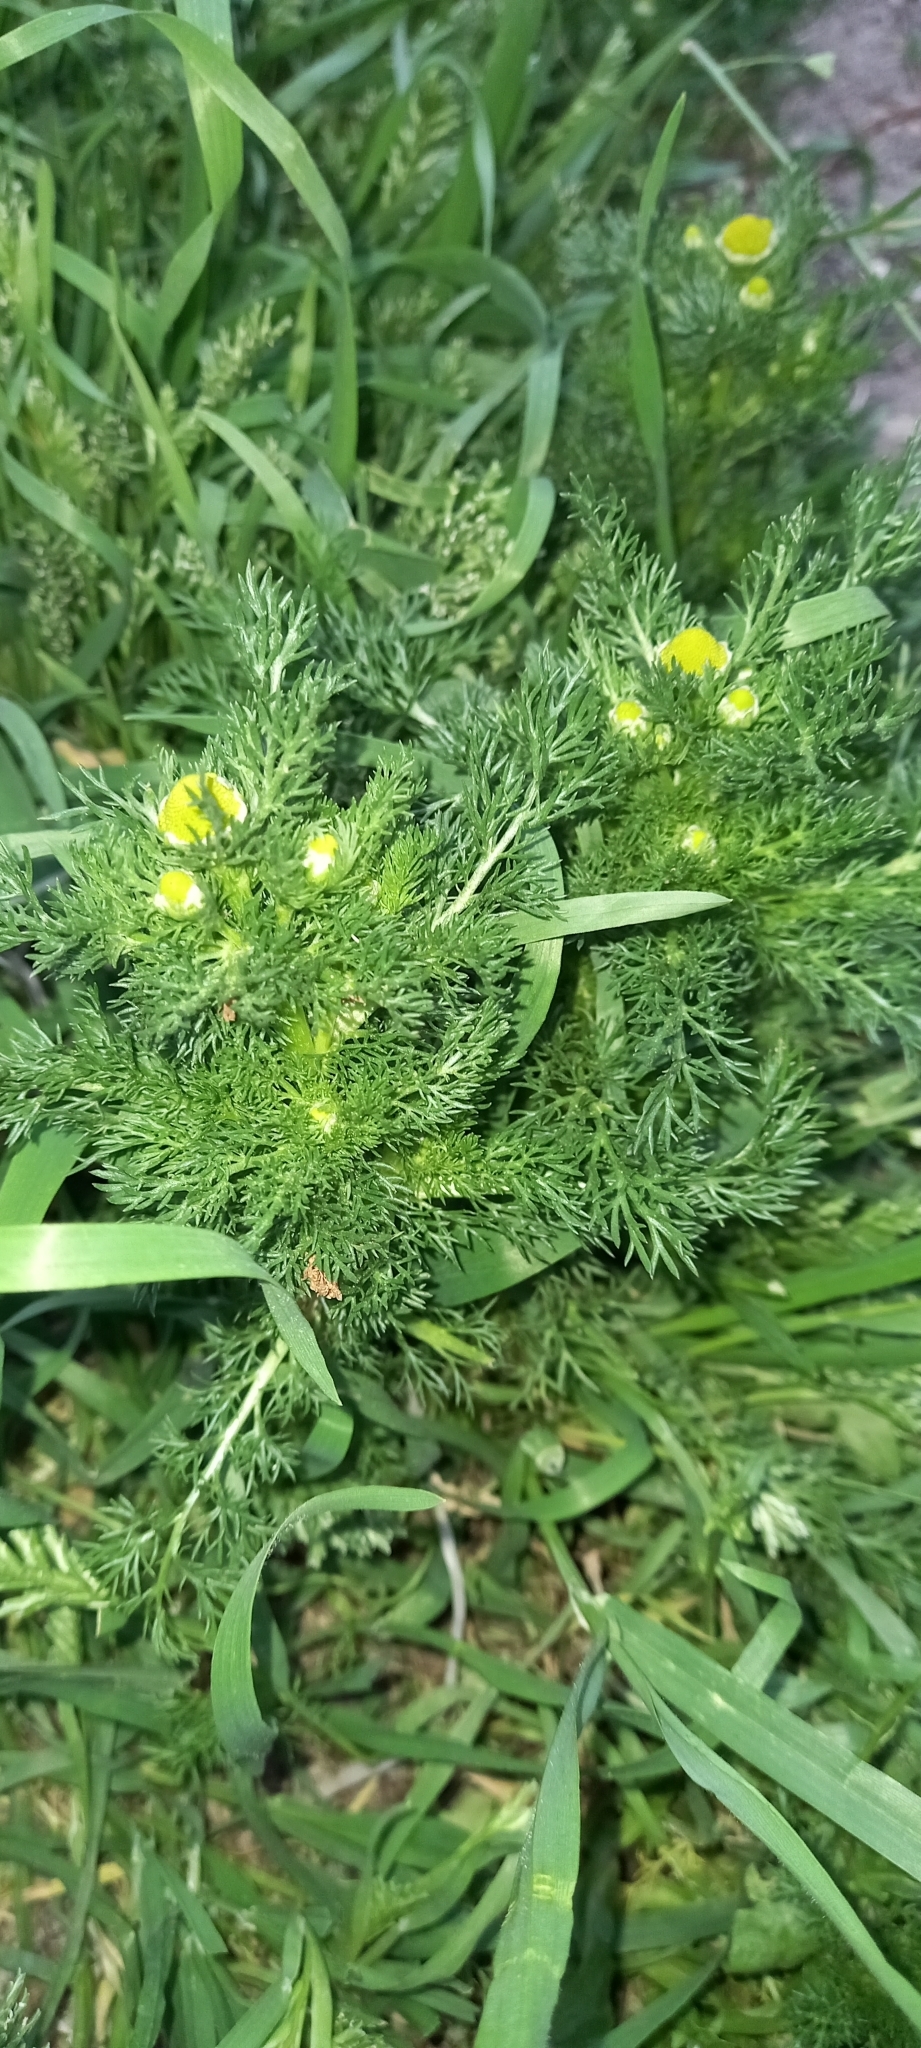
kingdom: Plantae
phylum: Tracheophyta
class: Magnoliopsida
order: Asterales
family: Asteraceae
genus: Matricaria
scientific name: Matricaria discoidea
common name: Disc mayweed
